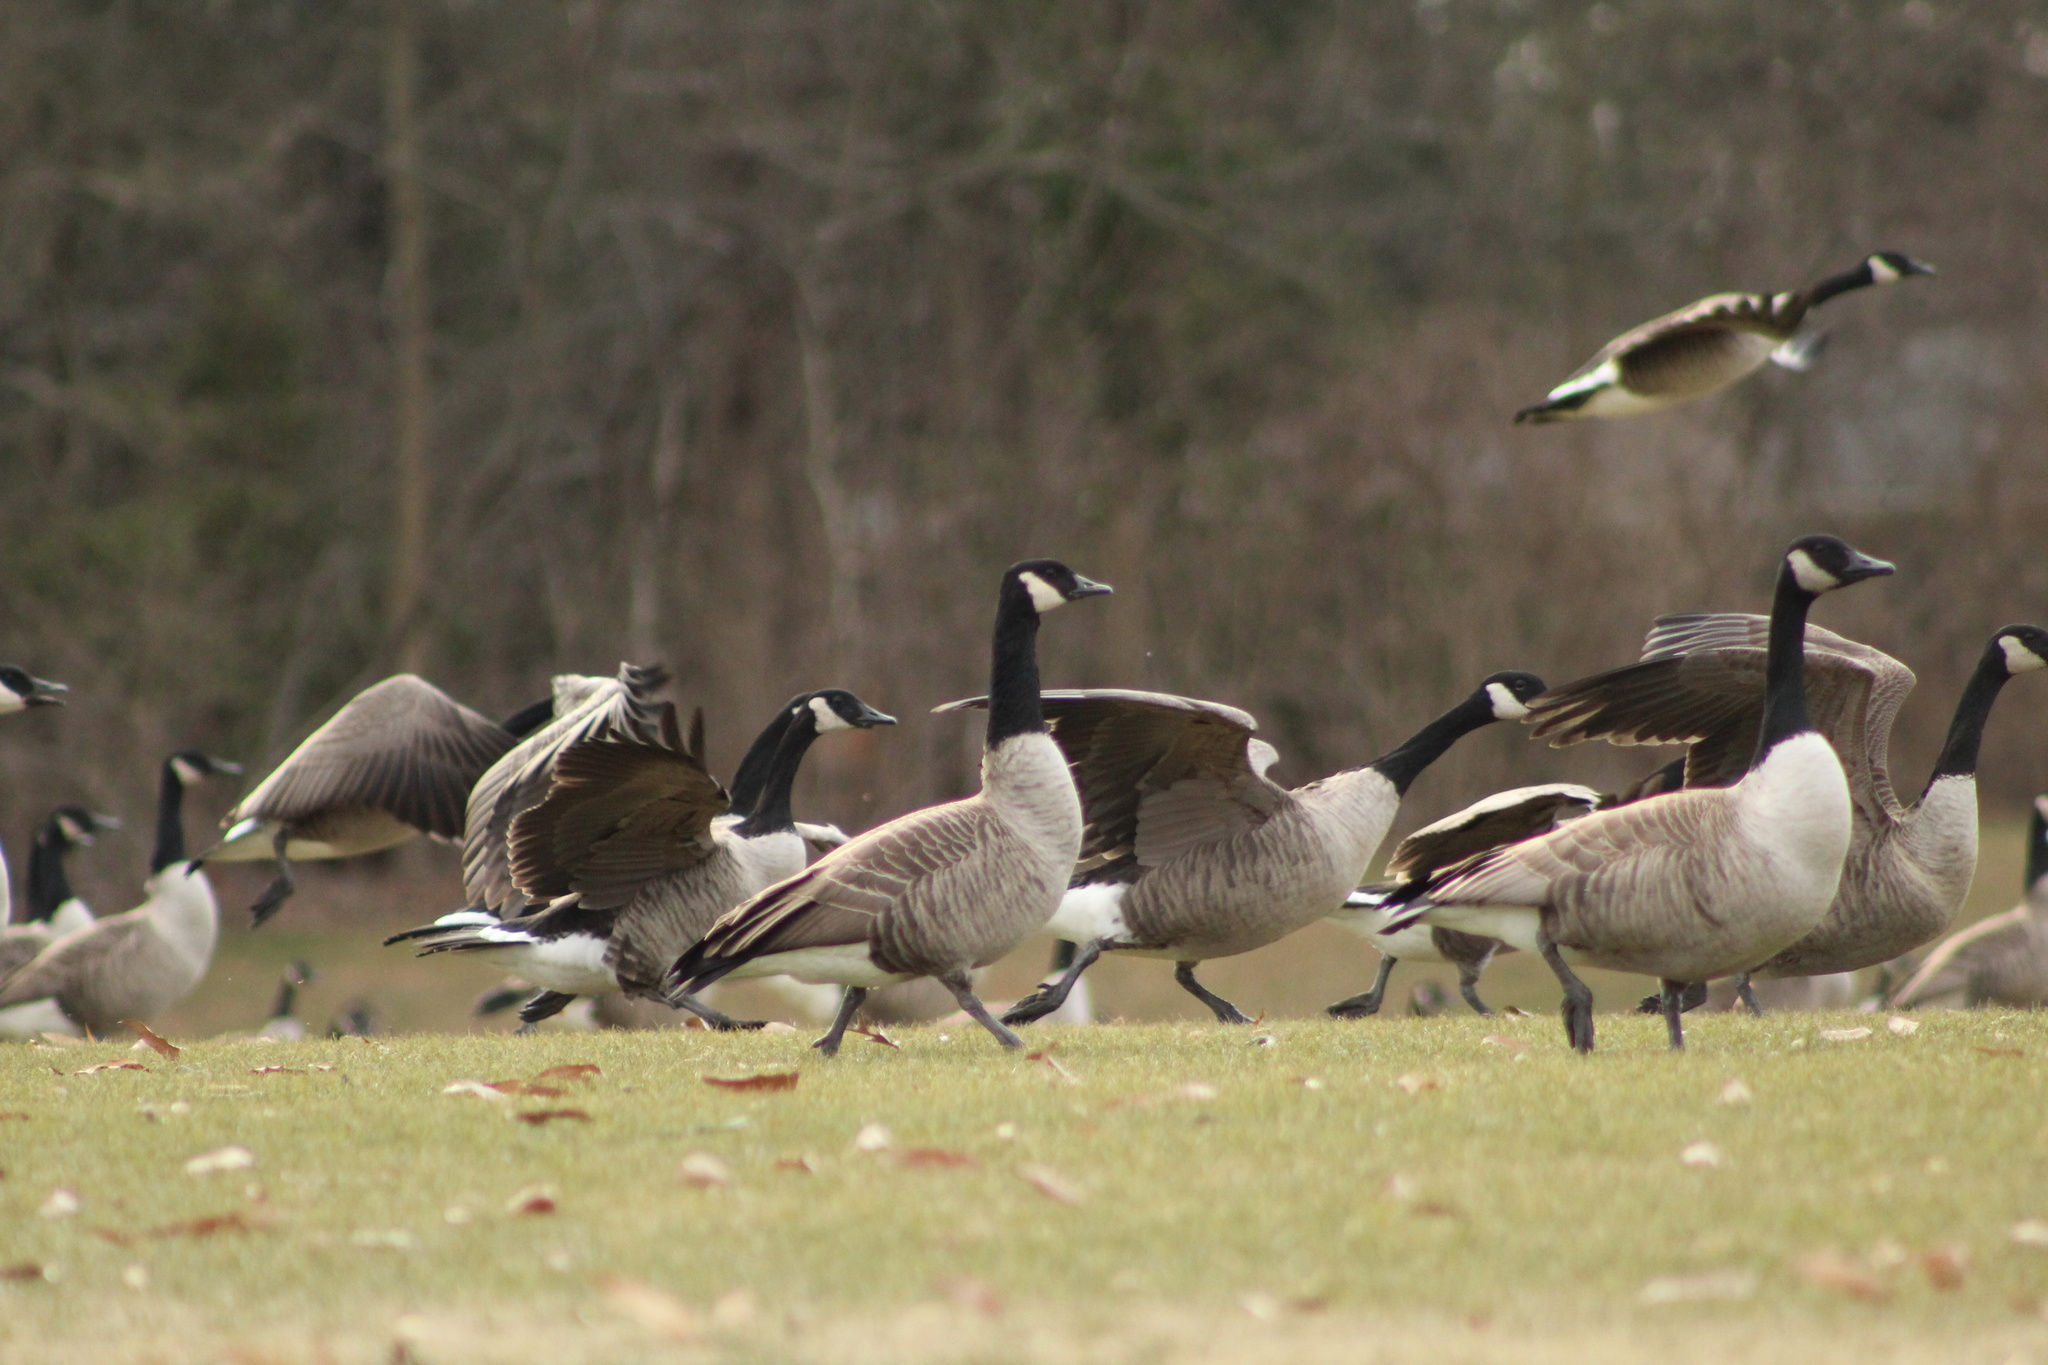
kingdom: Animalia
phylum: Chordata
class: Aves
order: Anseriformes
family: Anatidae
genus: Branta
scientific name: Branta canadensis
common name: Canada goose
